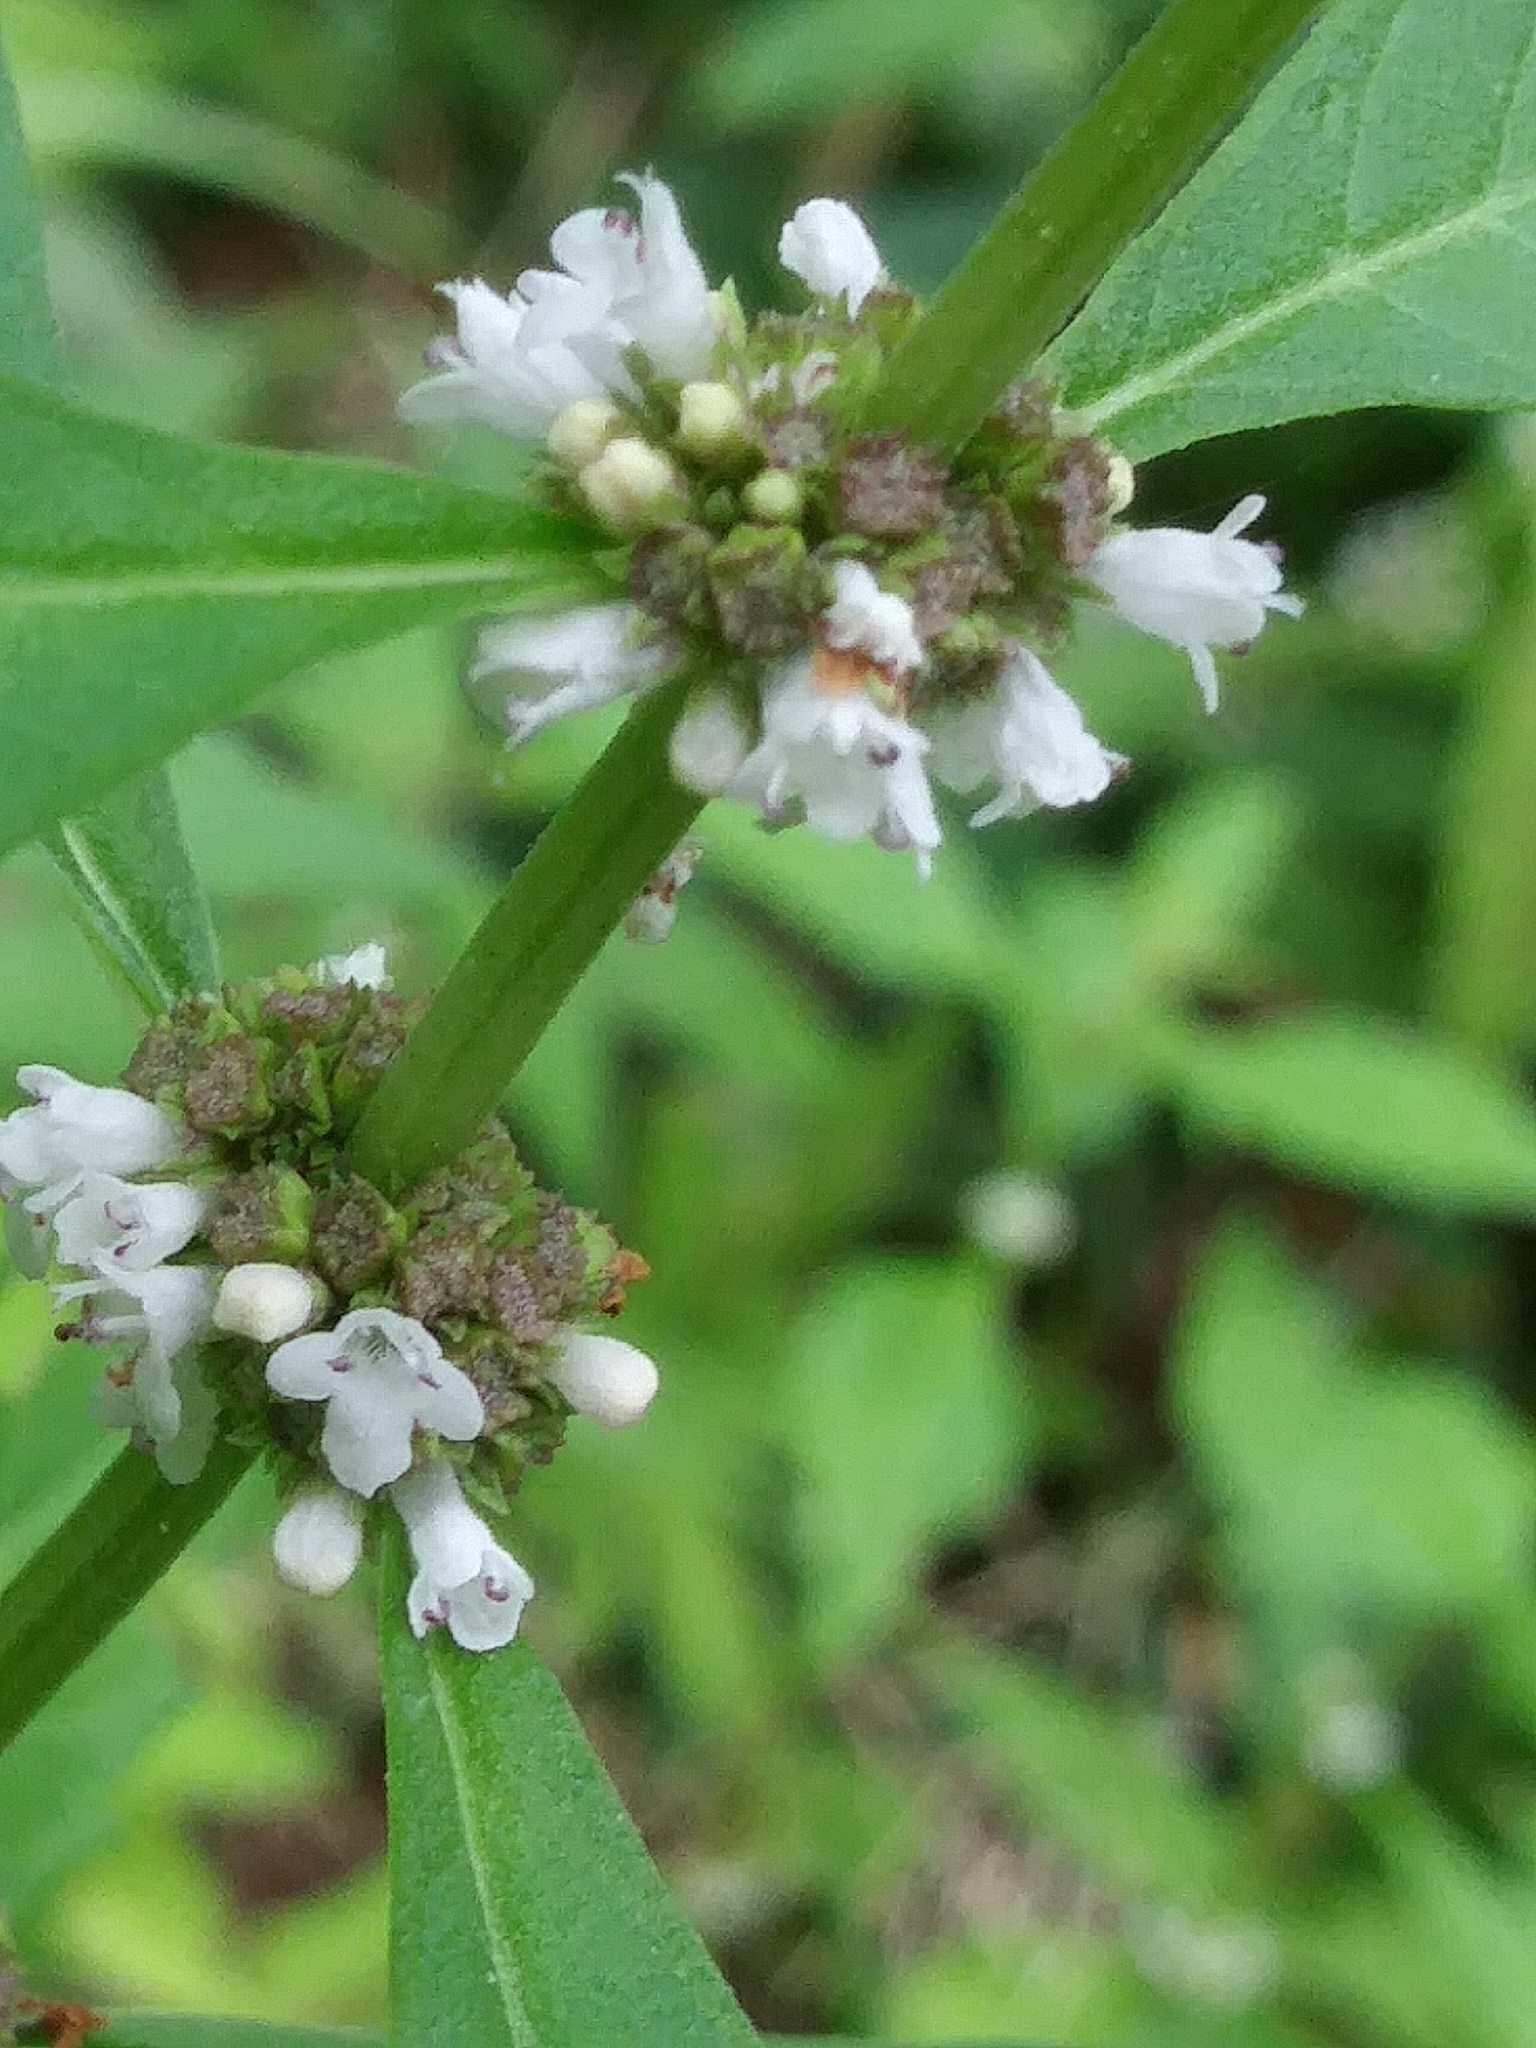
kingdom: Plantae
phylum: Tracheophyta
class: Magnoliopsida
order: Lamiales
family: Lamiaceae
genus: Lycopus
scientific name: Lycopus uniflorus
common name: Northern bugleweed
